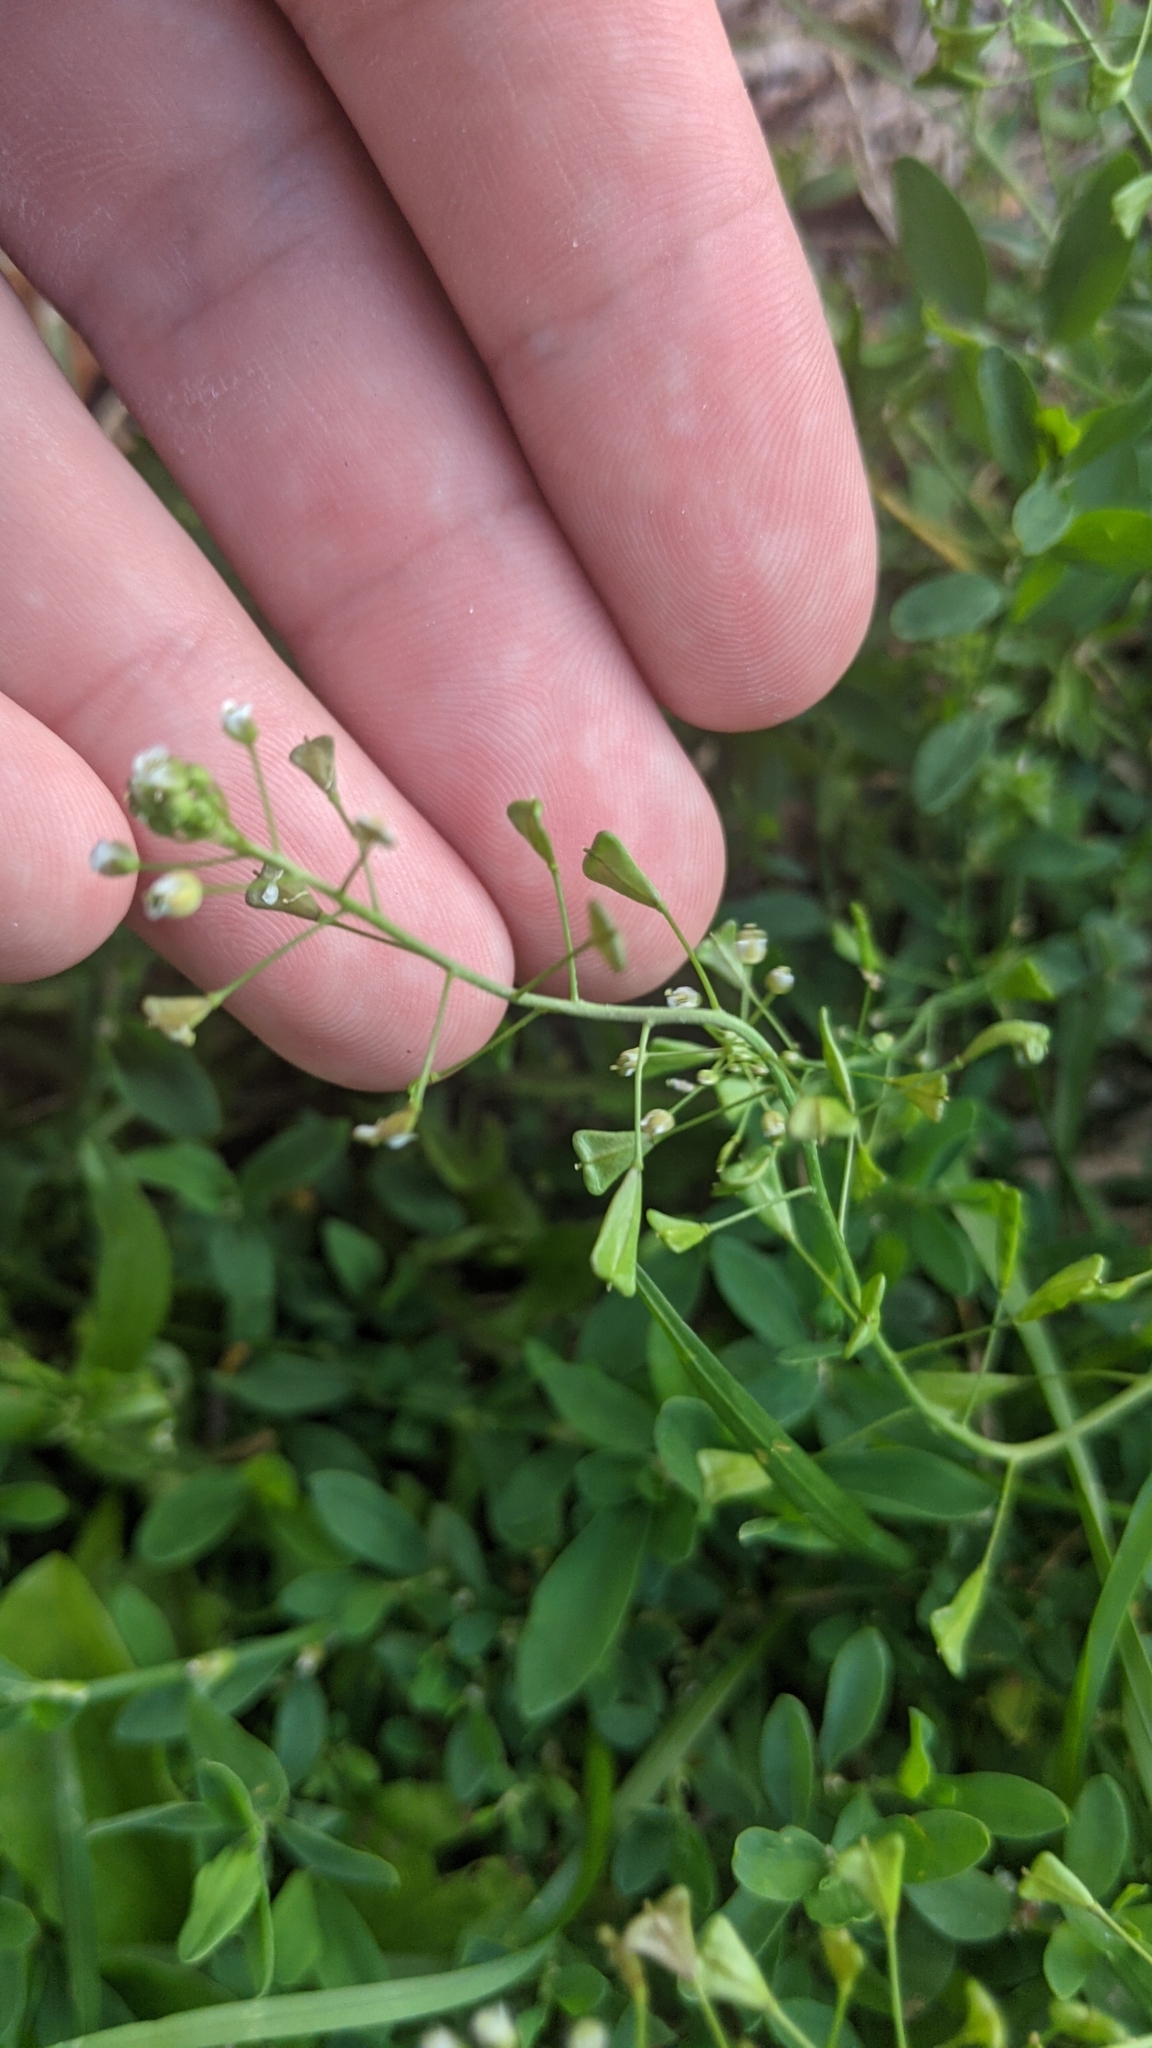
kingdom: Plantae
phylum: Tracheophyta
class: Magnoliopsida
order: Brassicales
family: Brassicaceae
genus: Capsella
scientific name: Capsella bursa-pastoris
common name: Shepherd's purse
